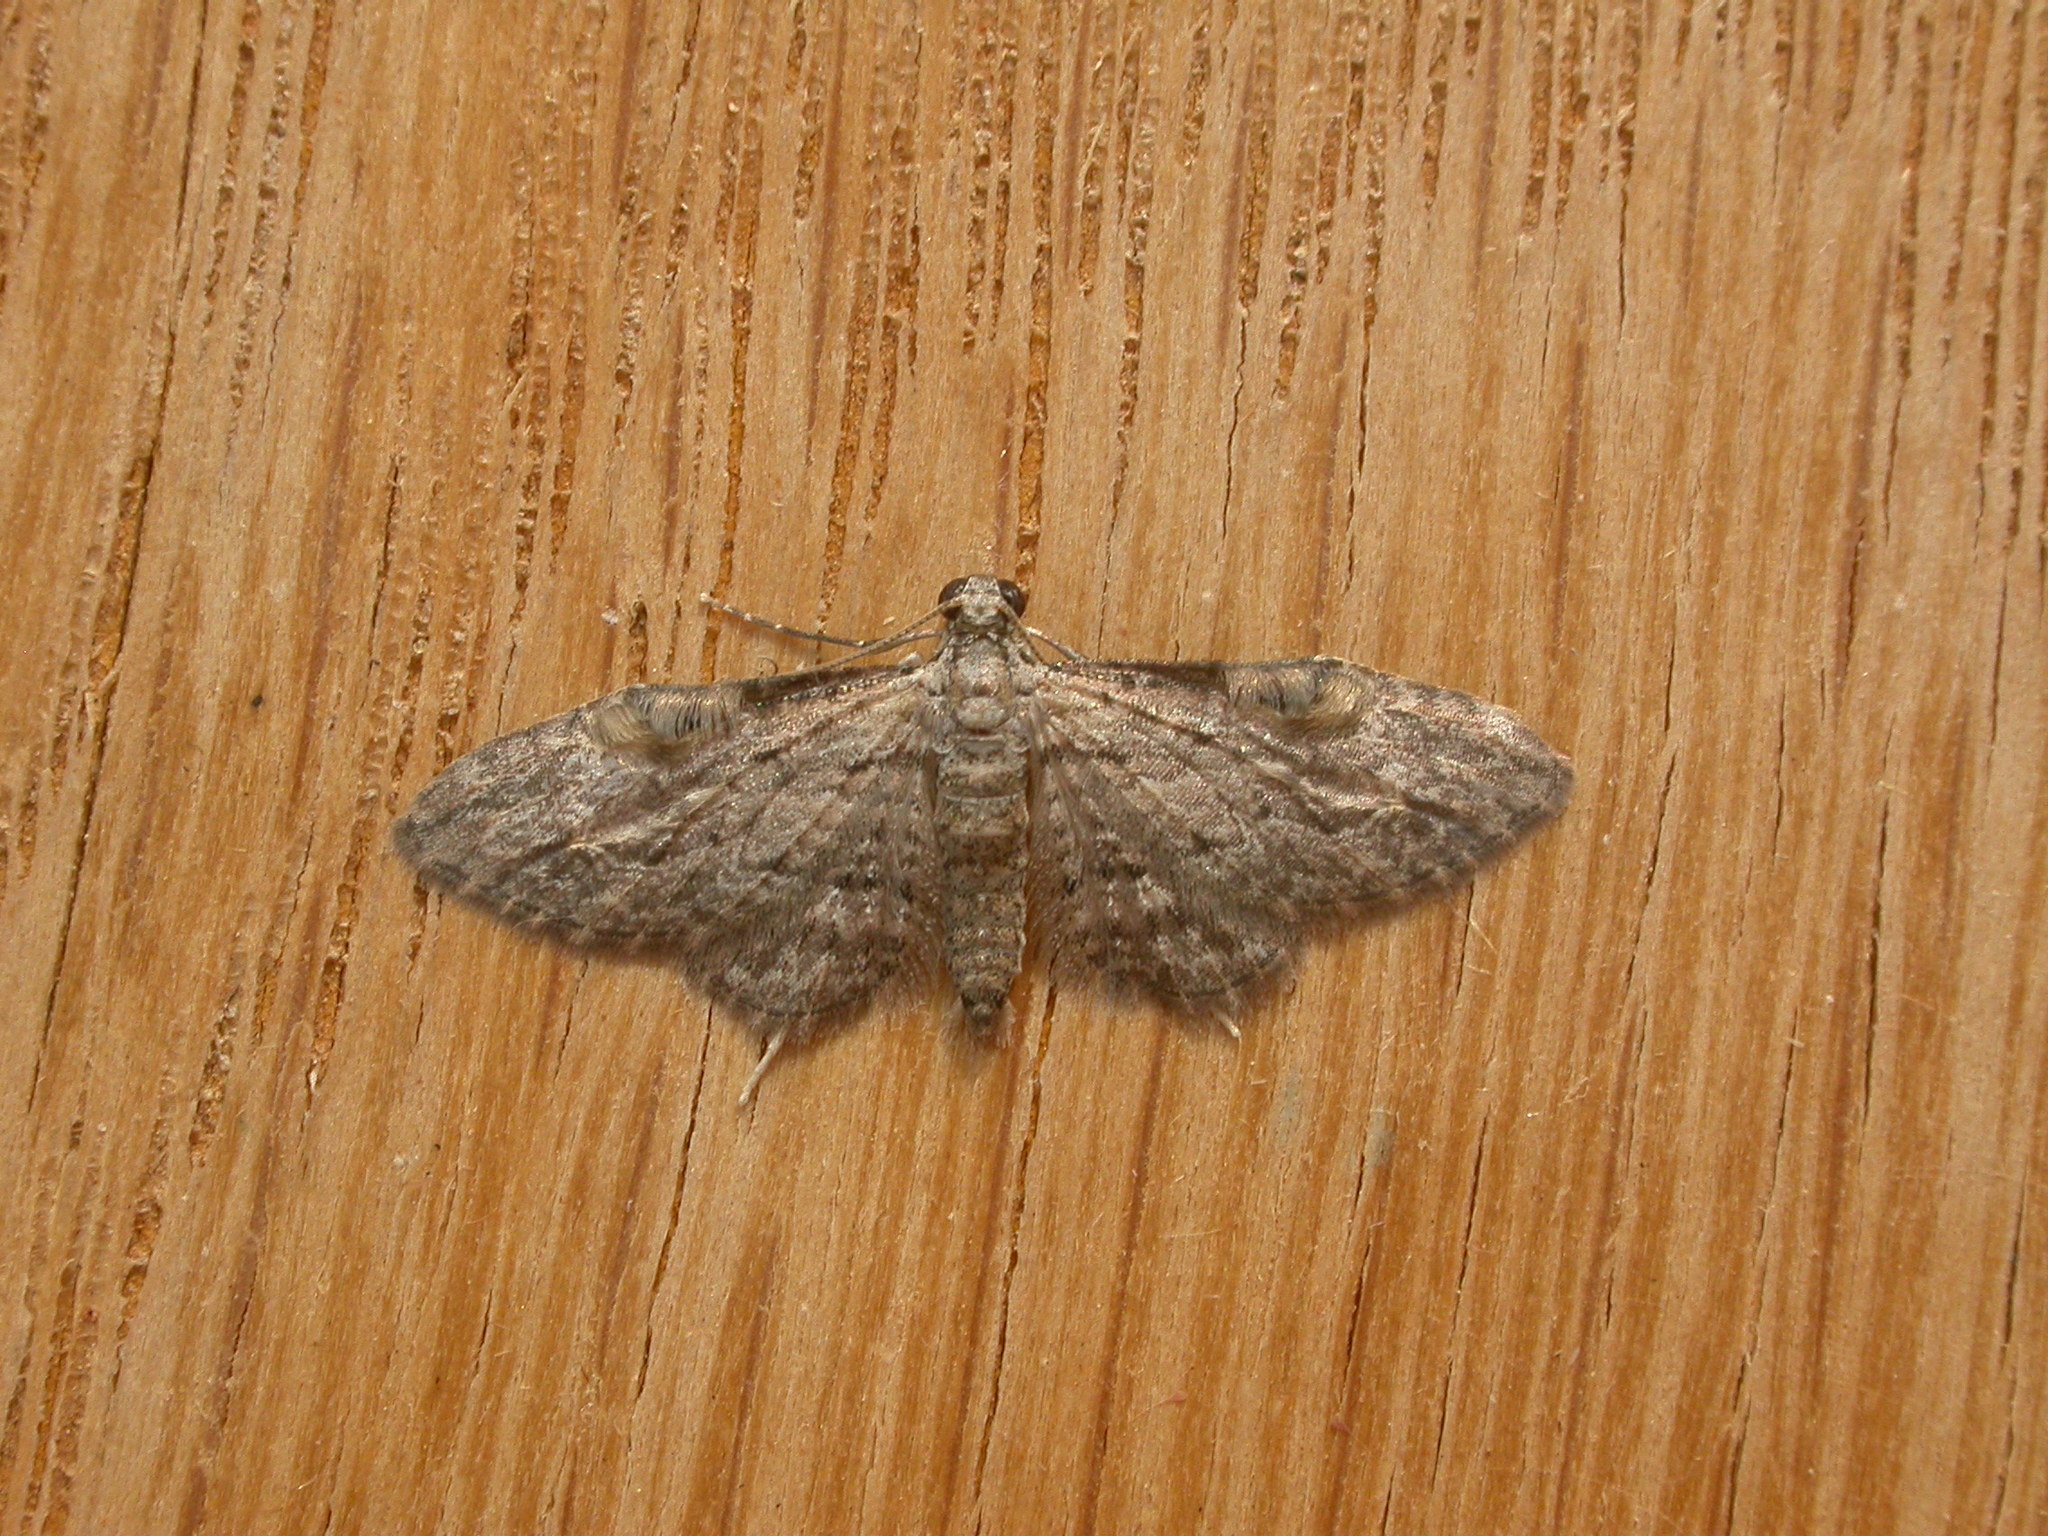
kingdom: Animalia
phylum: Arthropoda
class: Insecta
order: Lepidoptera
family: Geometridae
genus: Chloroclystis
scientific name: Chloroclystis insigillata
